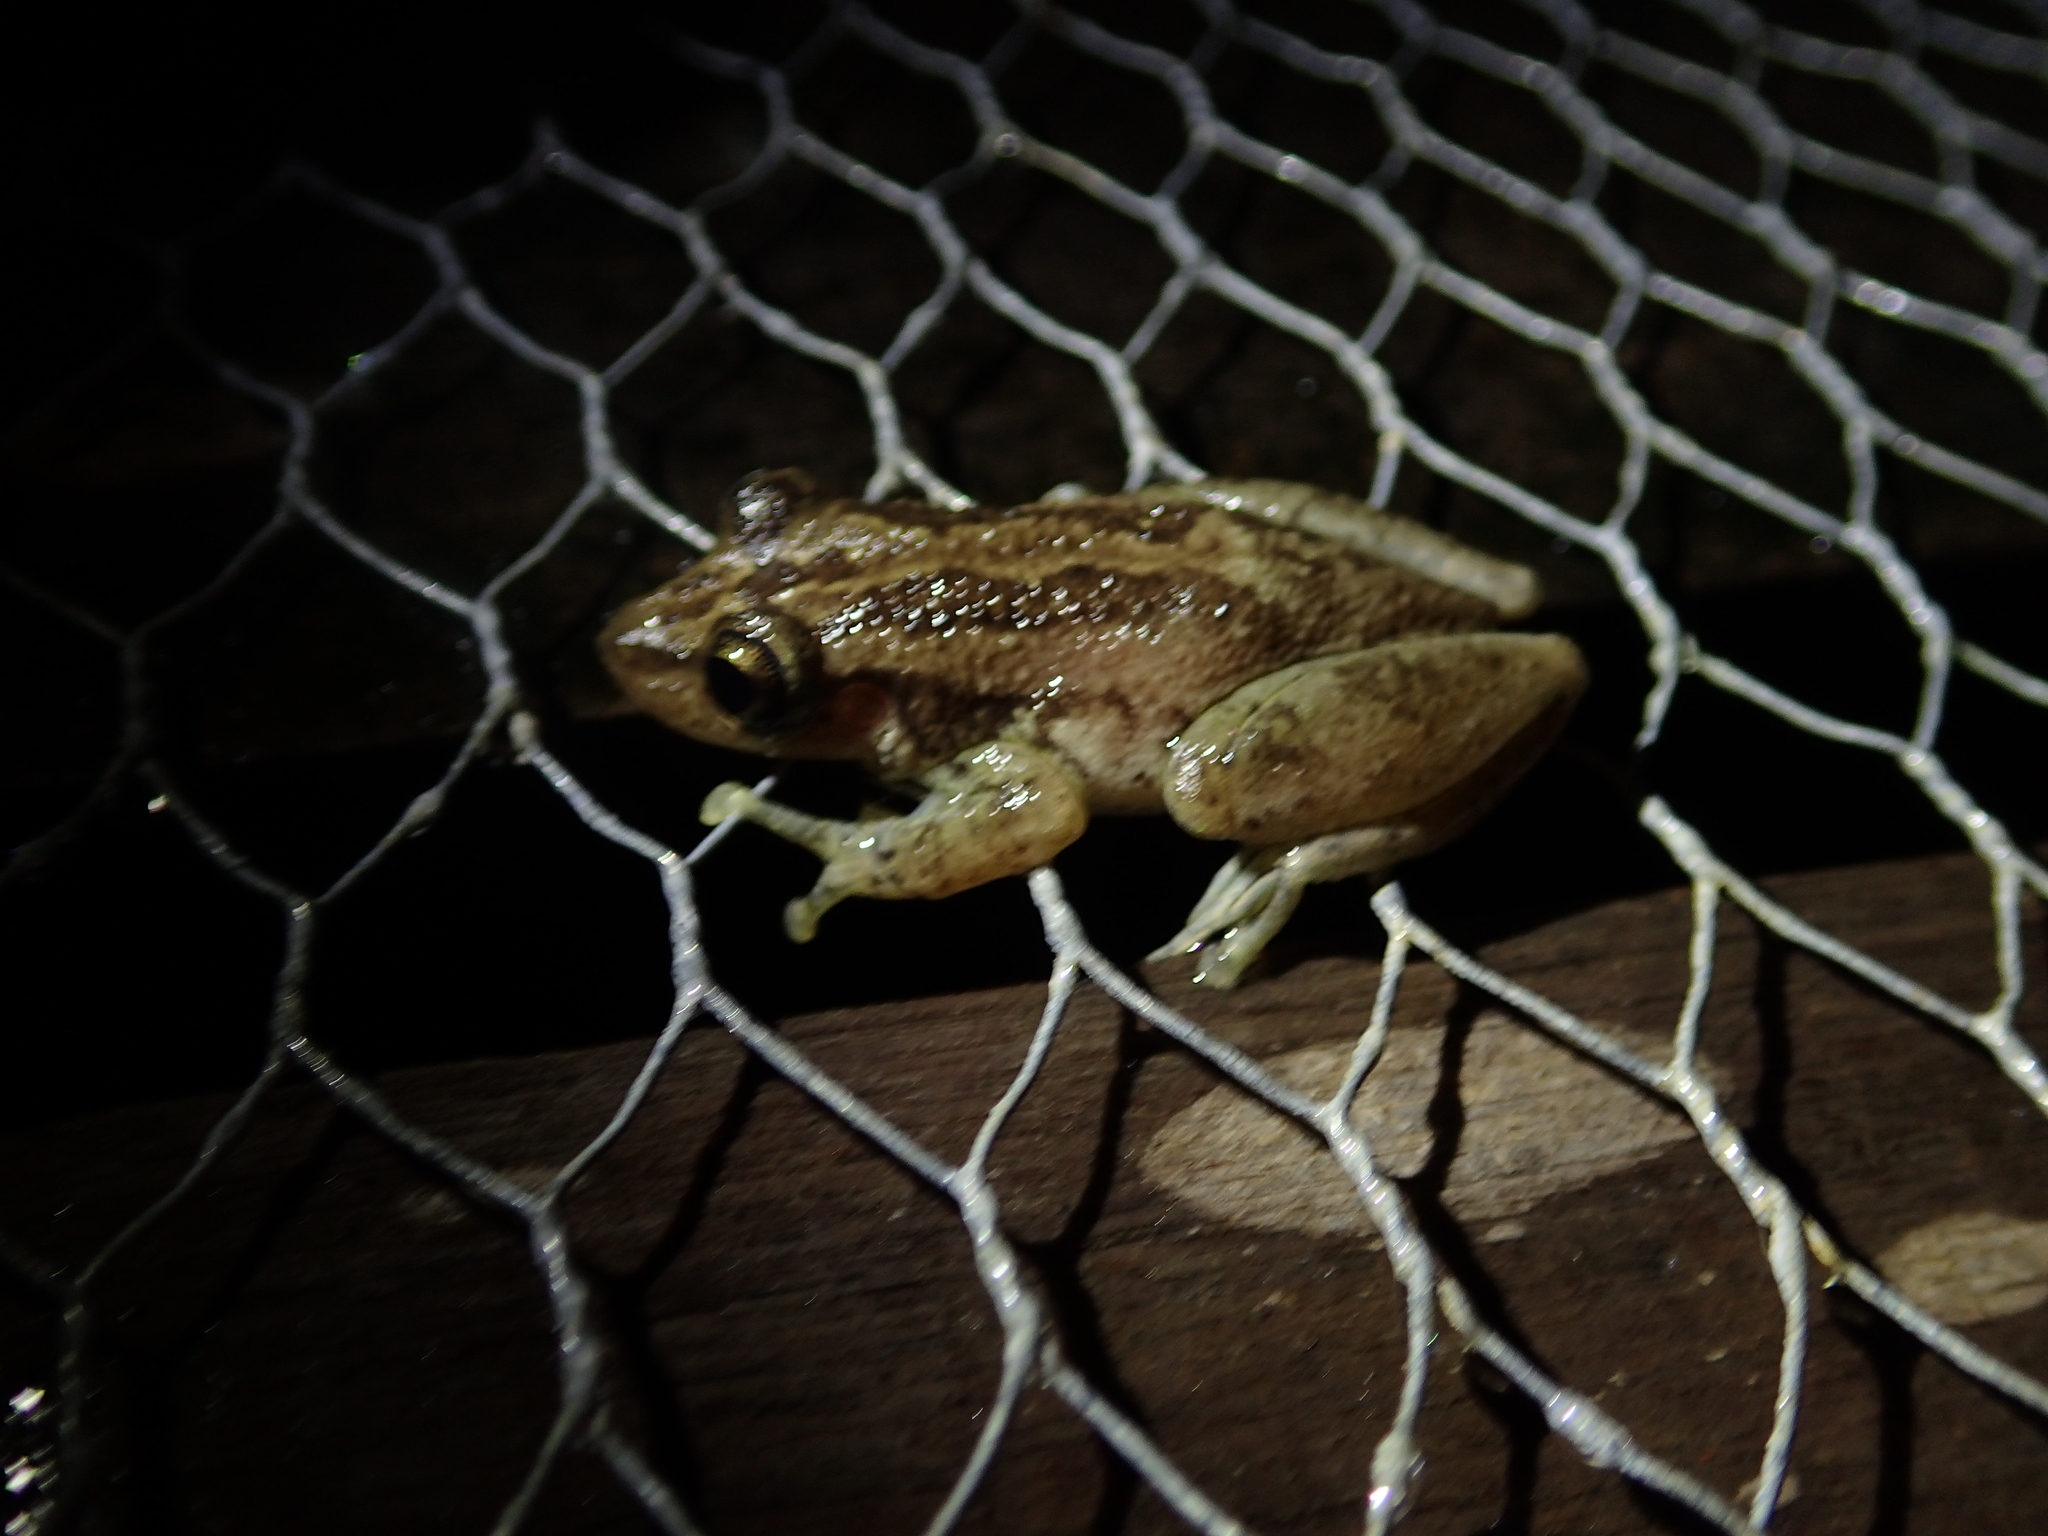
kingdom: Animalia
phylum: Chordata
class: Amphibia
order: Anura
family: Hylidae
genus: Scinax
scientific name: Scinax ruber
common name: Red snouted treefrog
